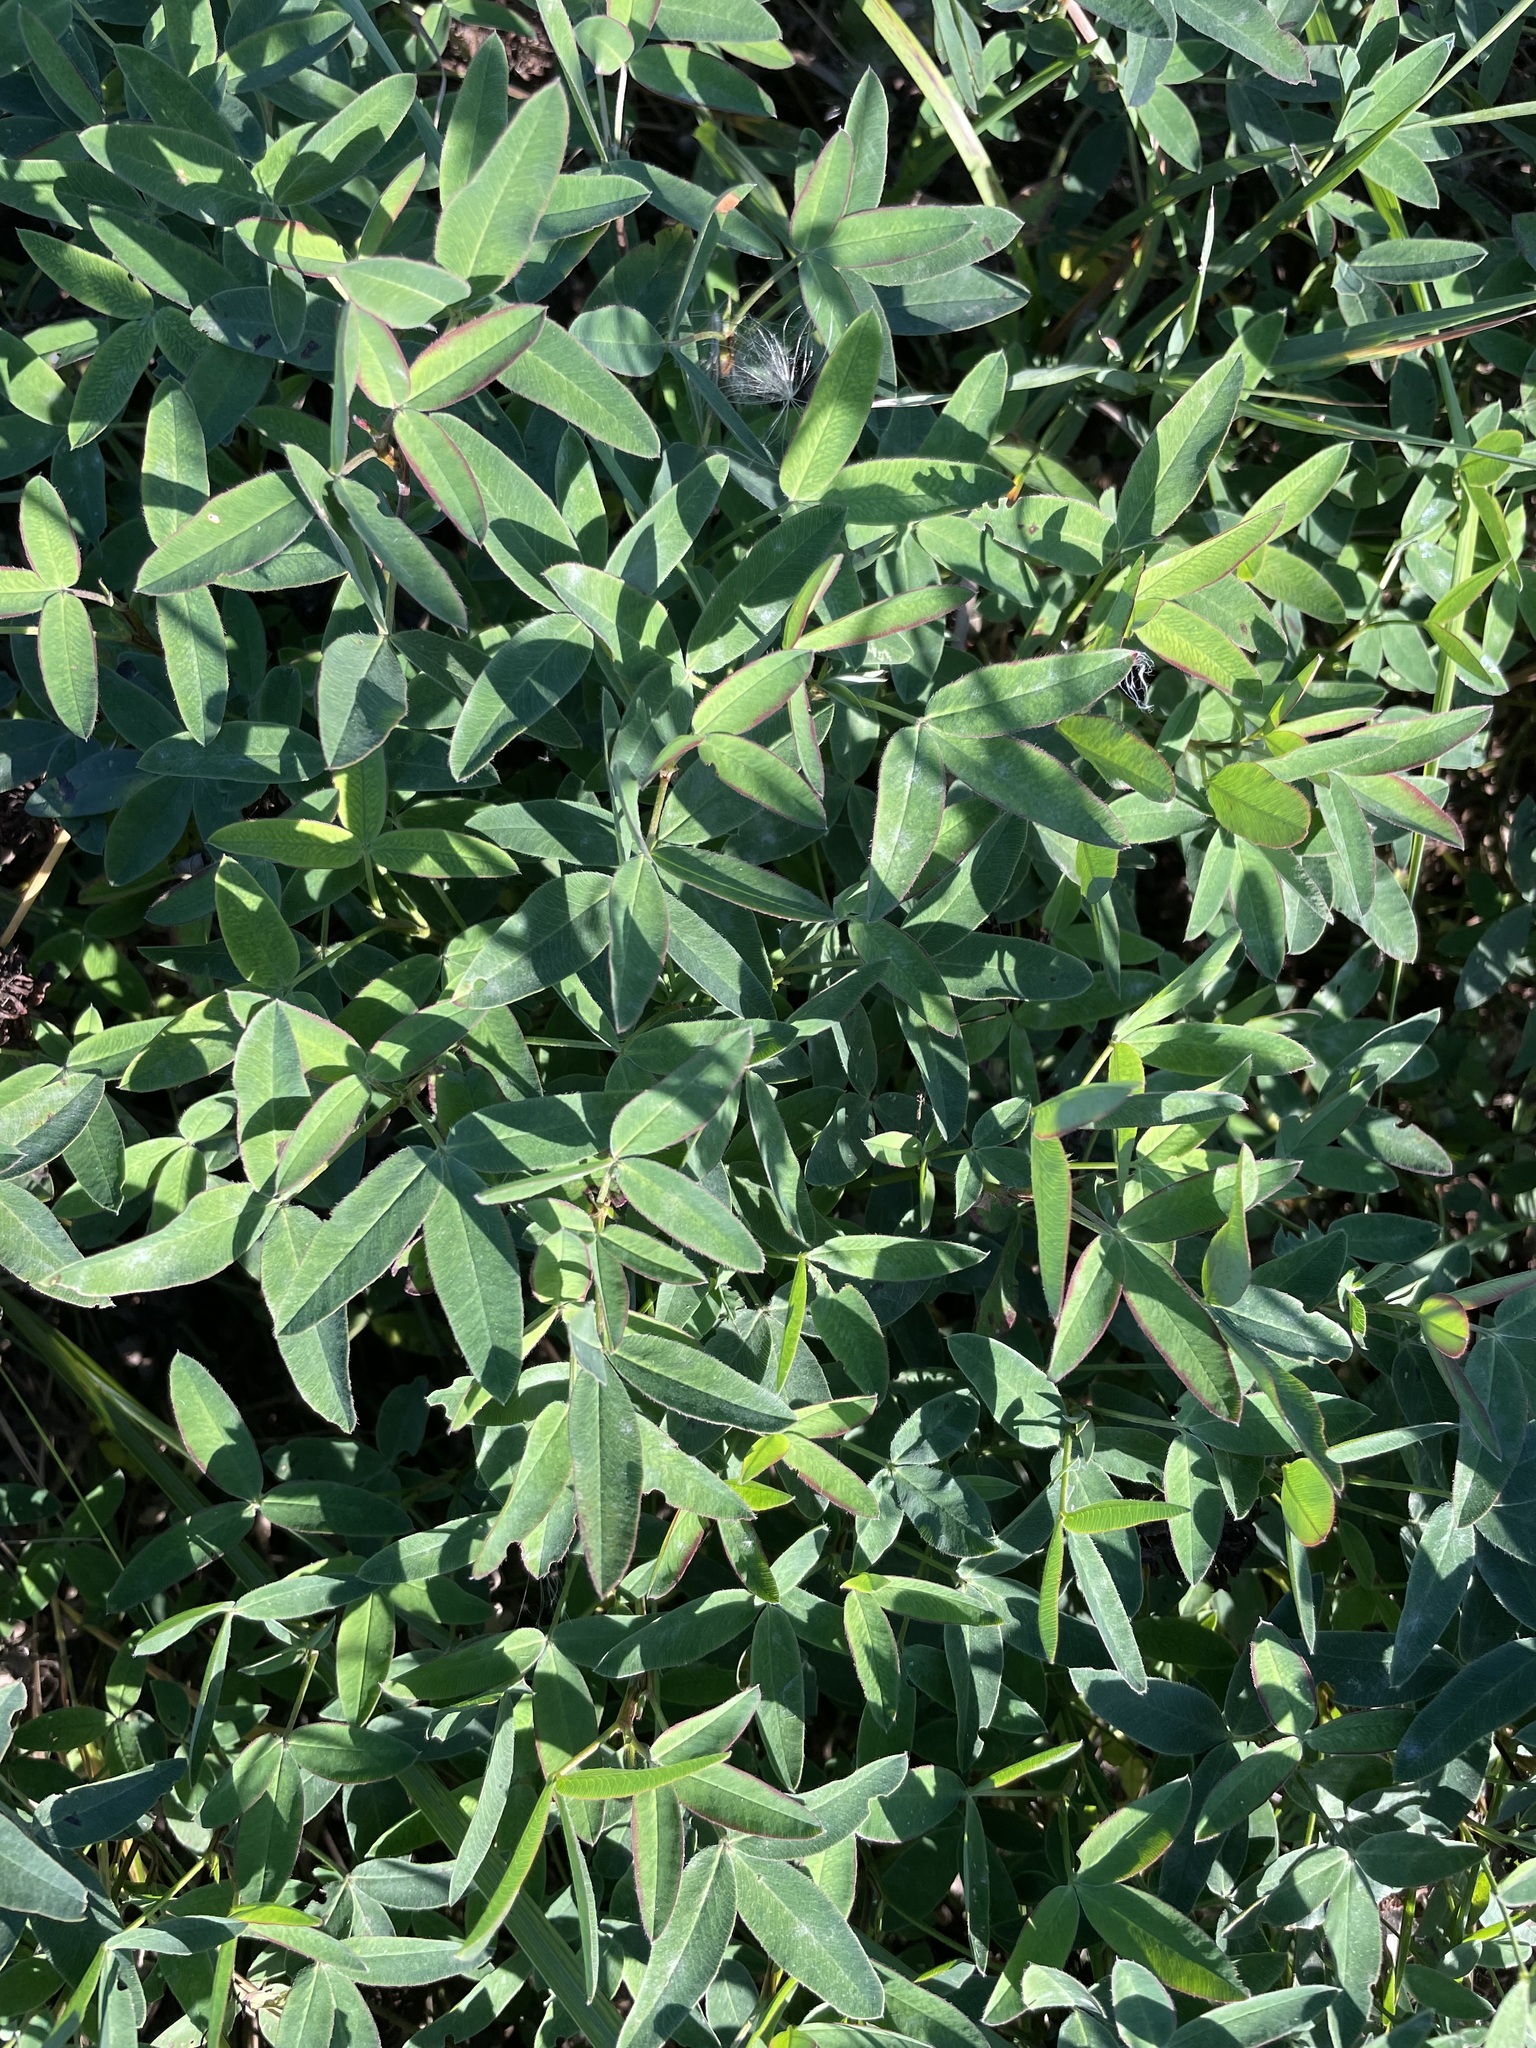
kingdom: Plantae
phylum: Tracheophyta
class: Magnoliopsida
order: Fabales
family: Fabaceae
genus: Trifolium
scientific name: Trifolium medium
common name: Zigzag clover
